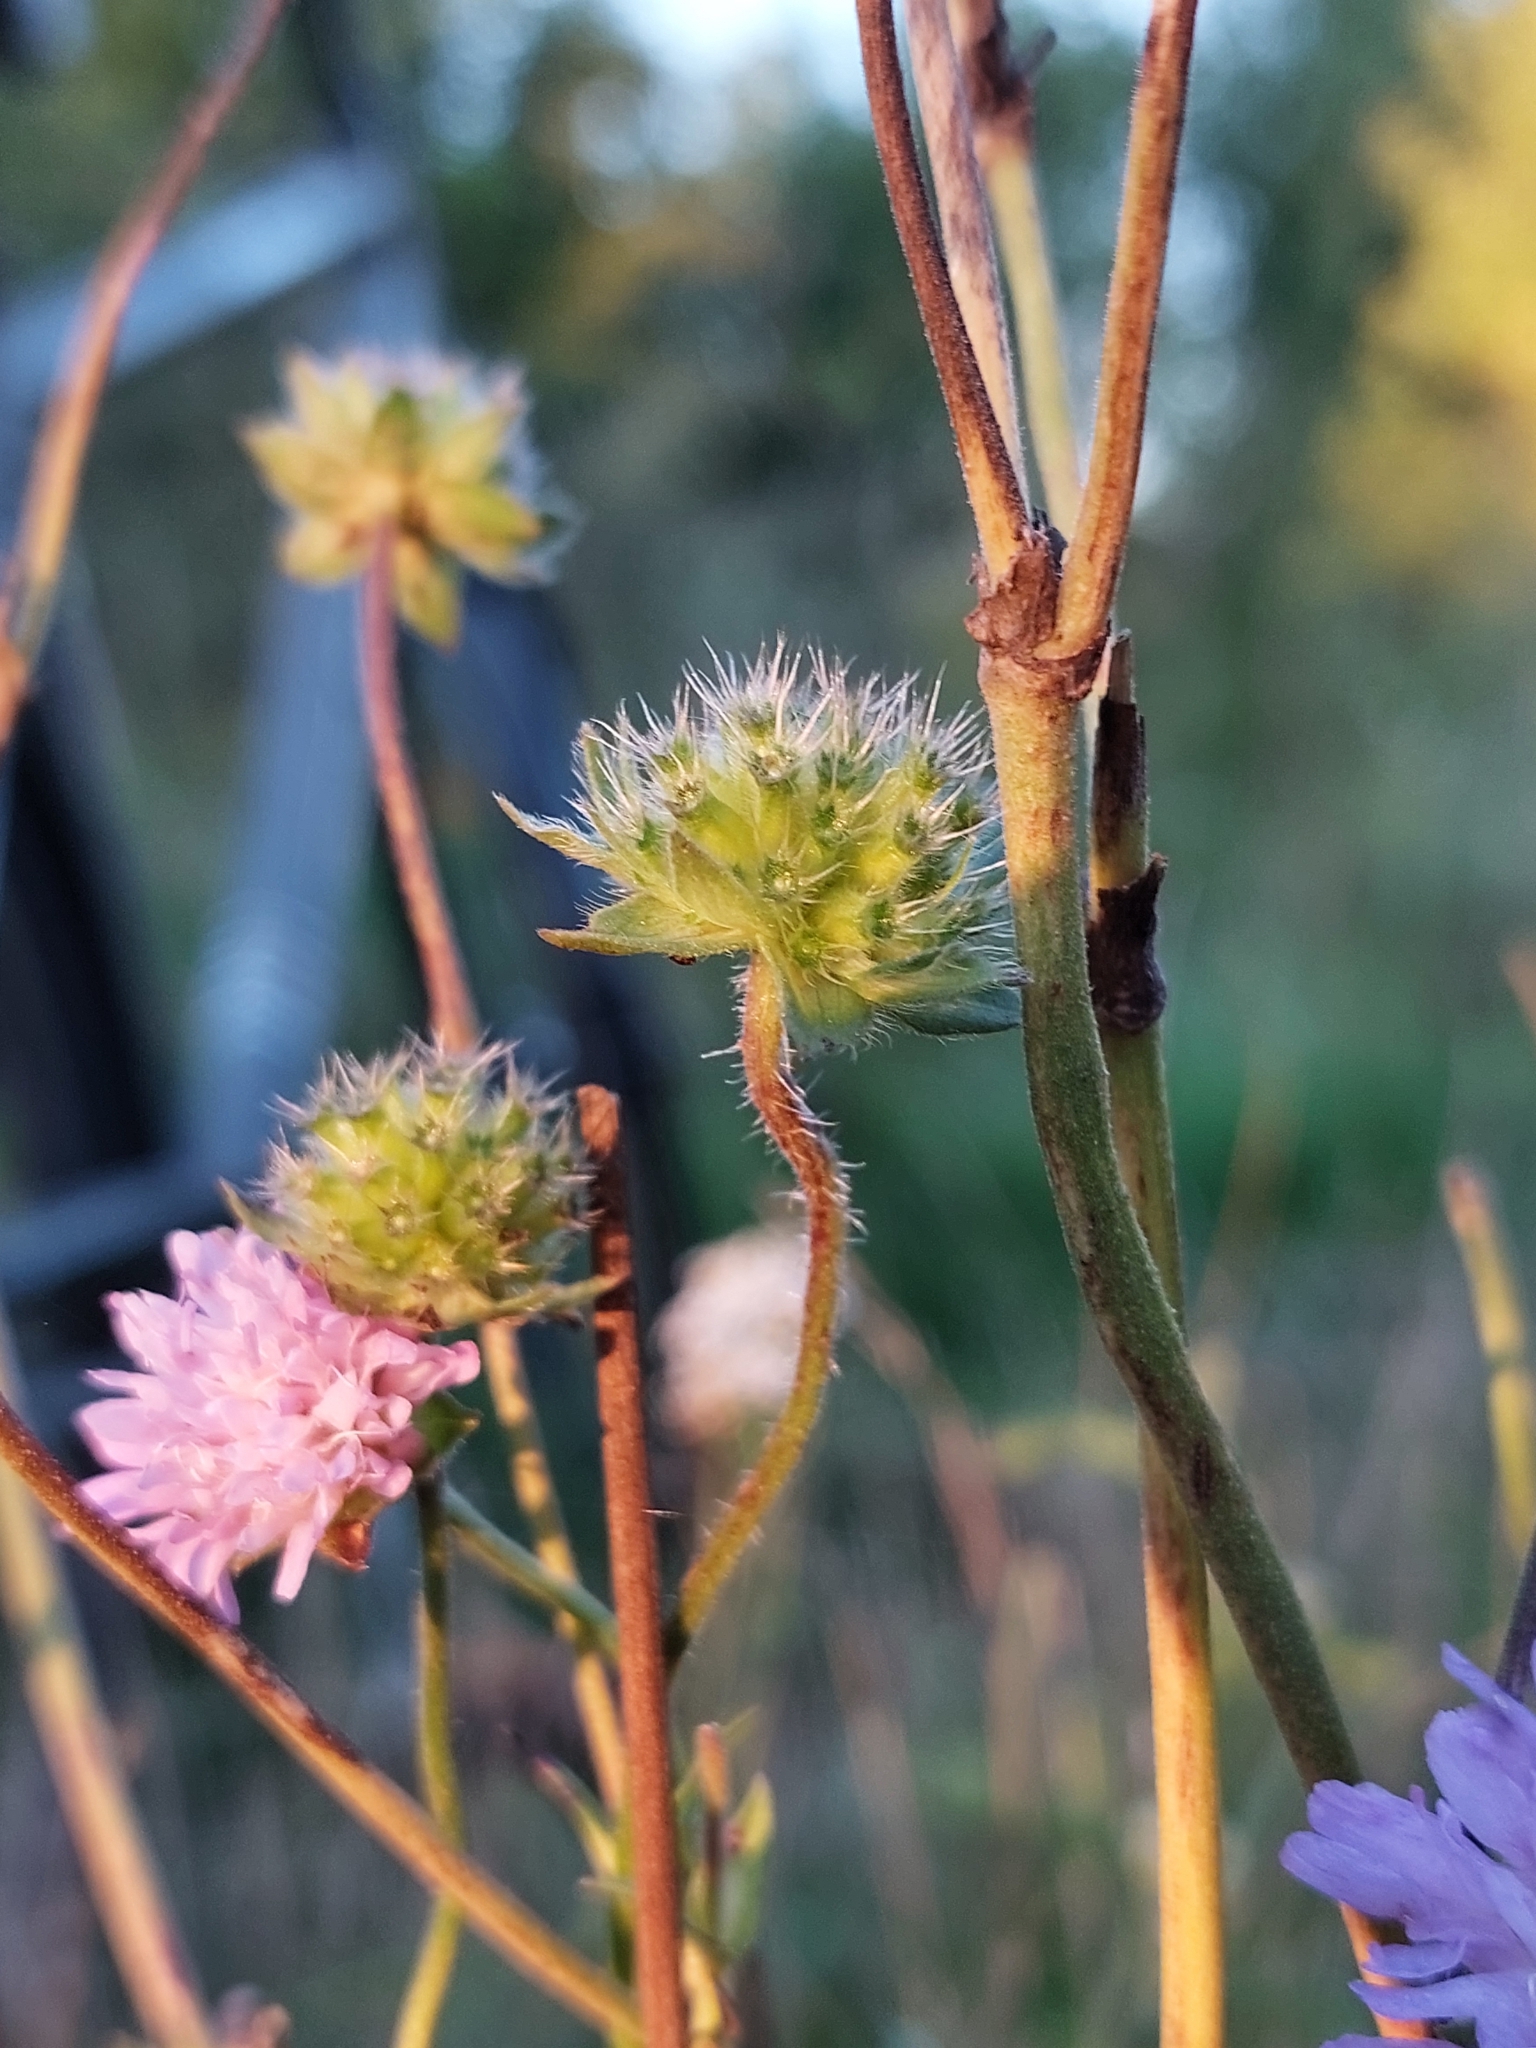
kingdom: Plantae
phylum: Tracheophyta
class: Magnoliopsida
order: Dipsacales
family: Caprifoliaceae
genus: Knautia
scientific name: Knautia arvensis
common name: Field scabiosa
